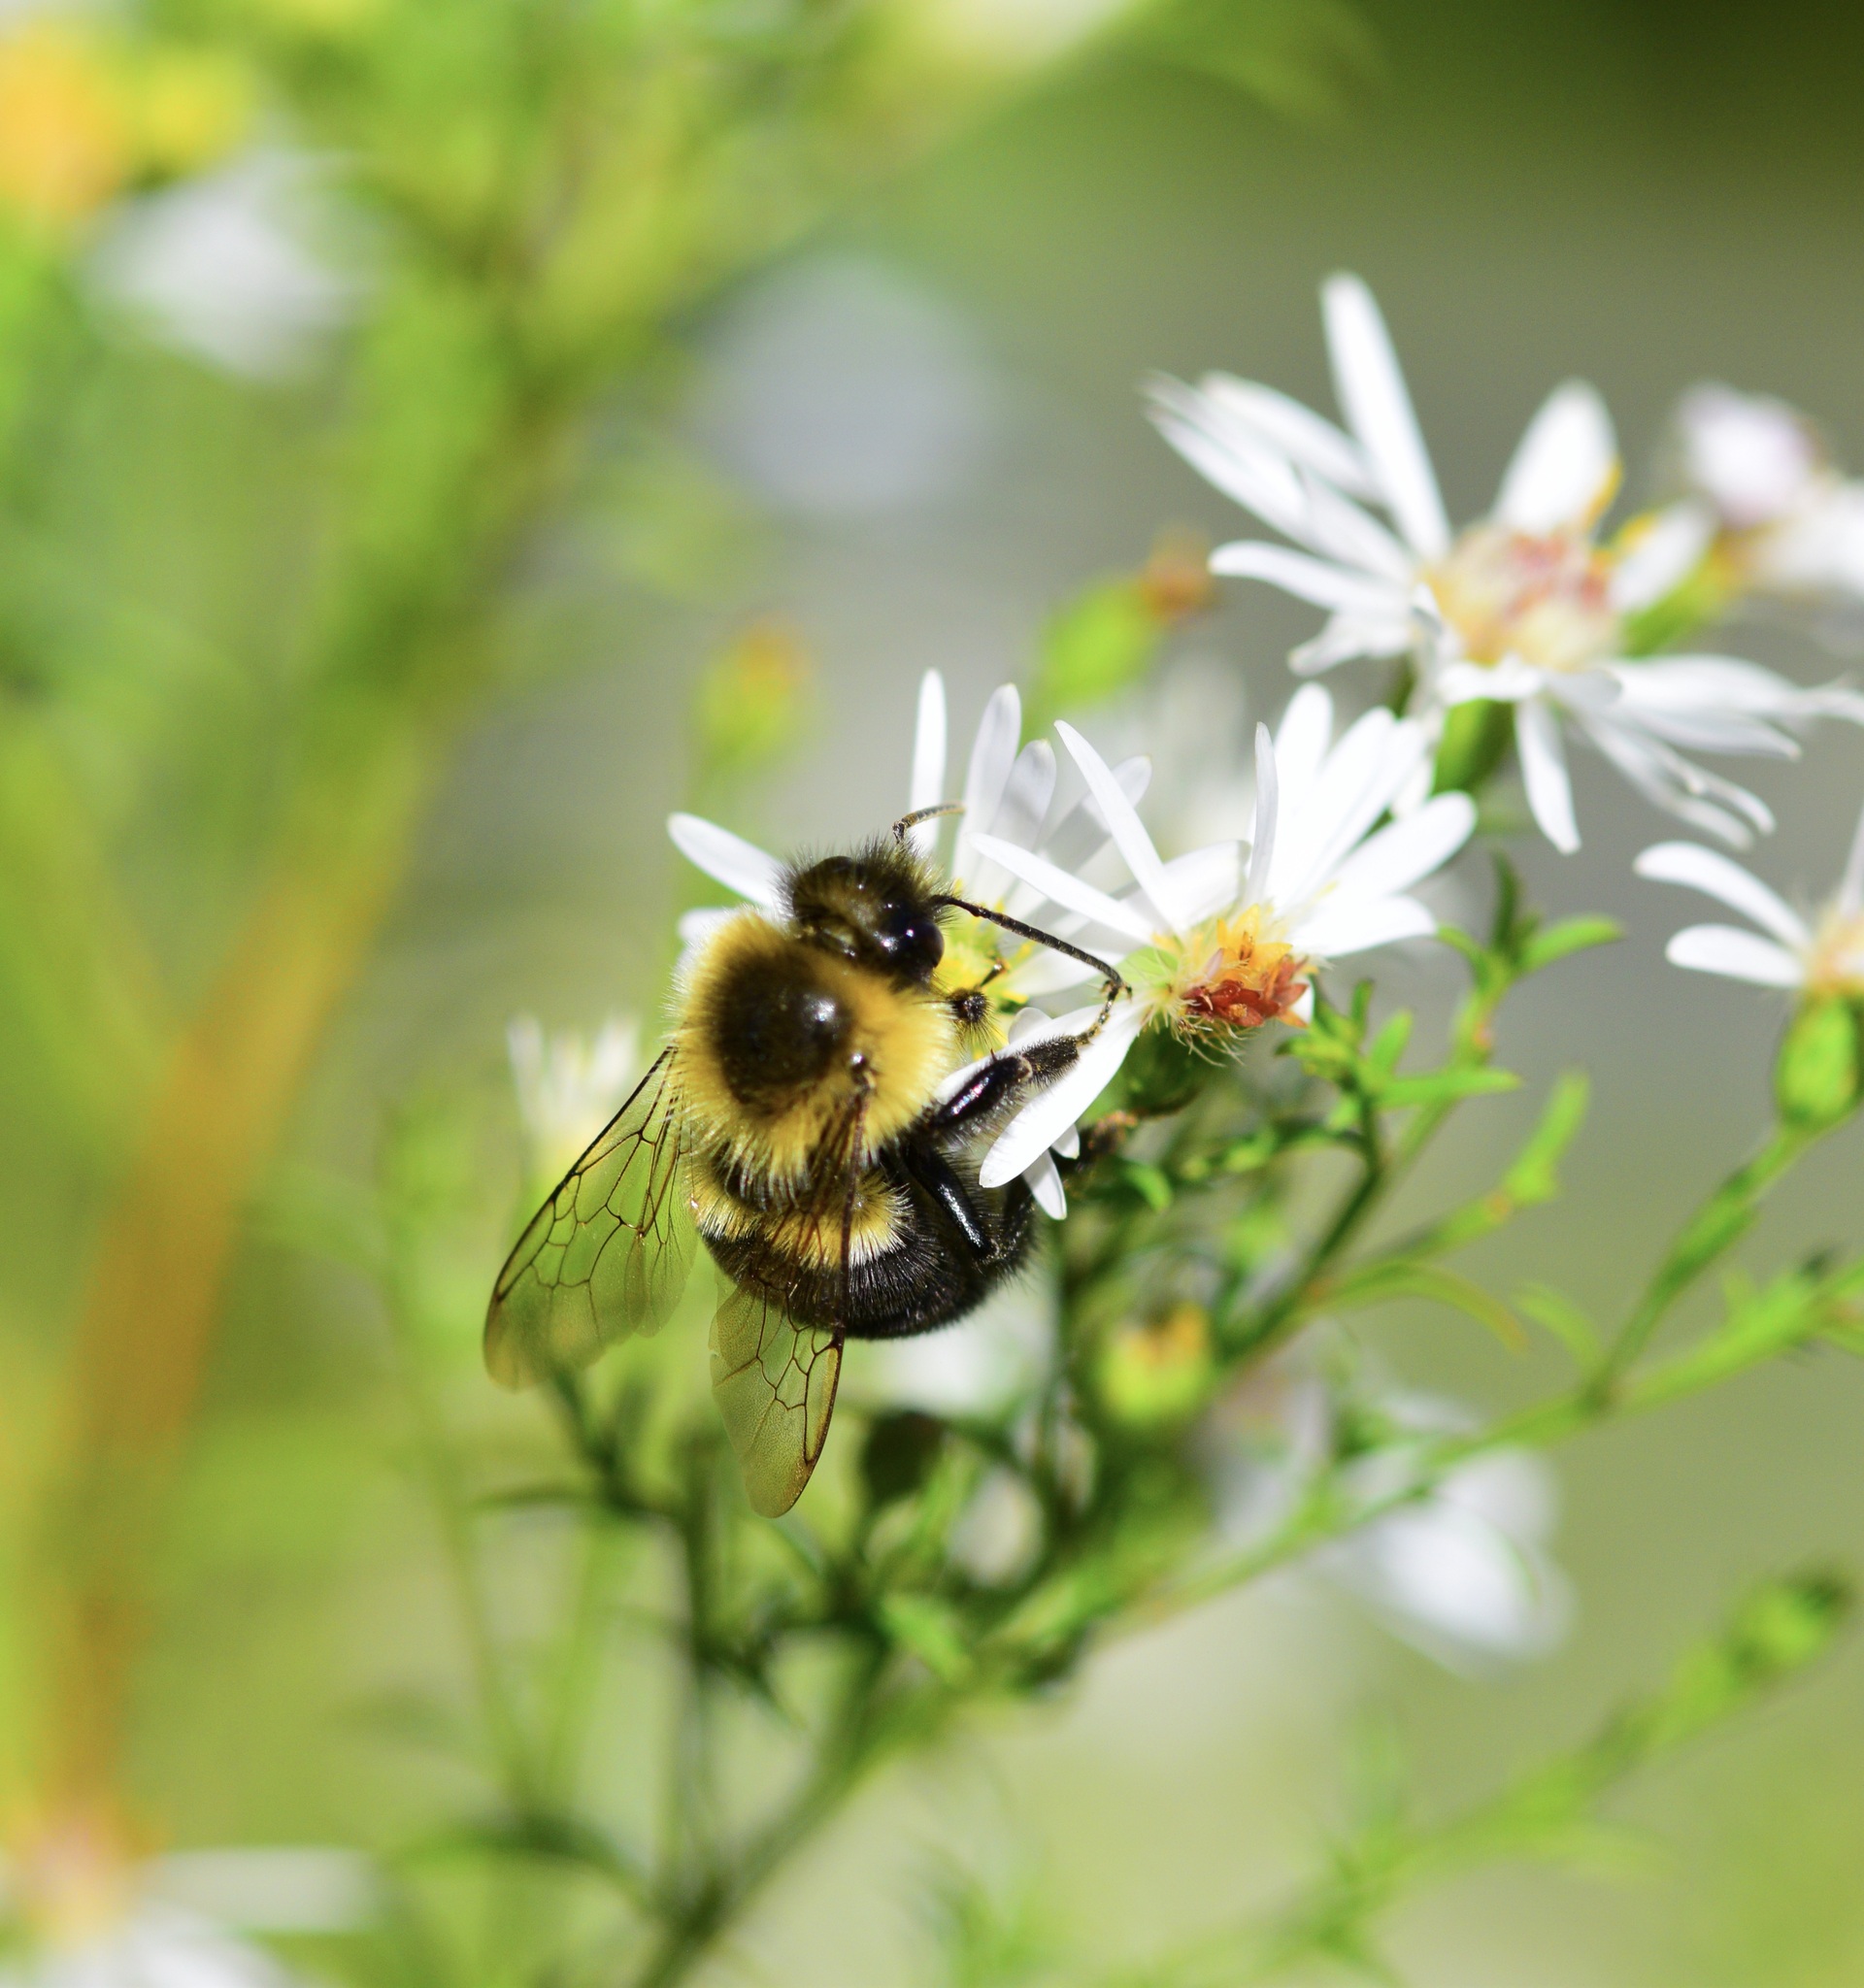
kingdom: Animalia
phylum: Arthropoda
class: Insecta
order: Hymenoptera
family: Apidae
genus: Bombus
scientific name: Bombus impatiens
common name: Common eastern bumble bee
